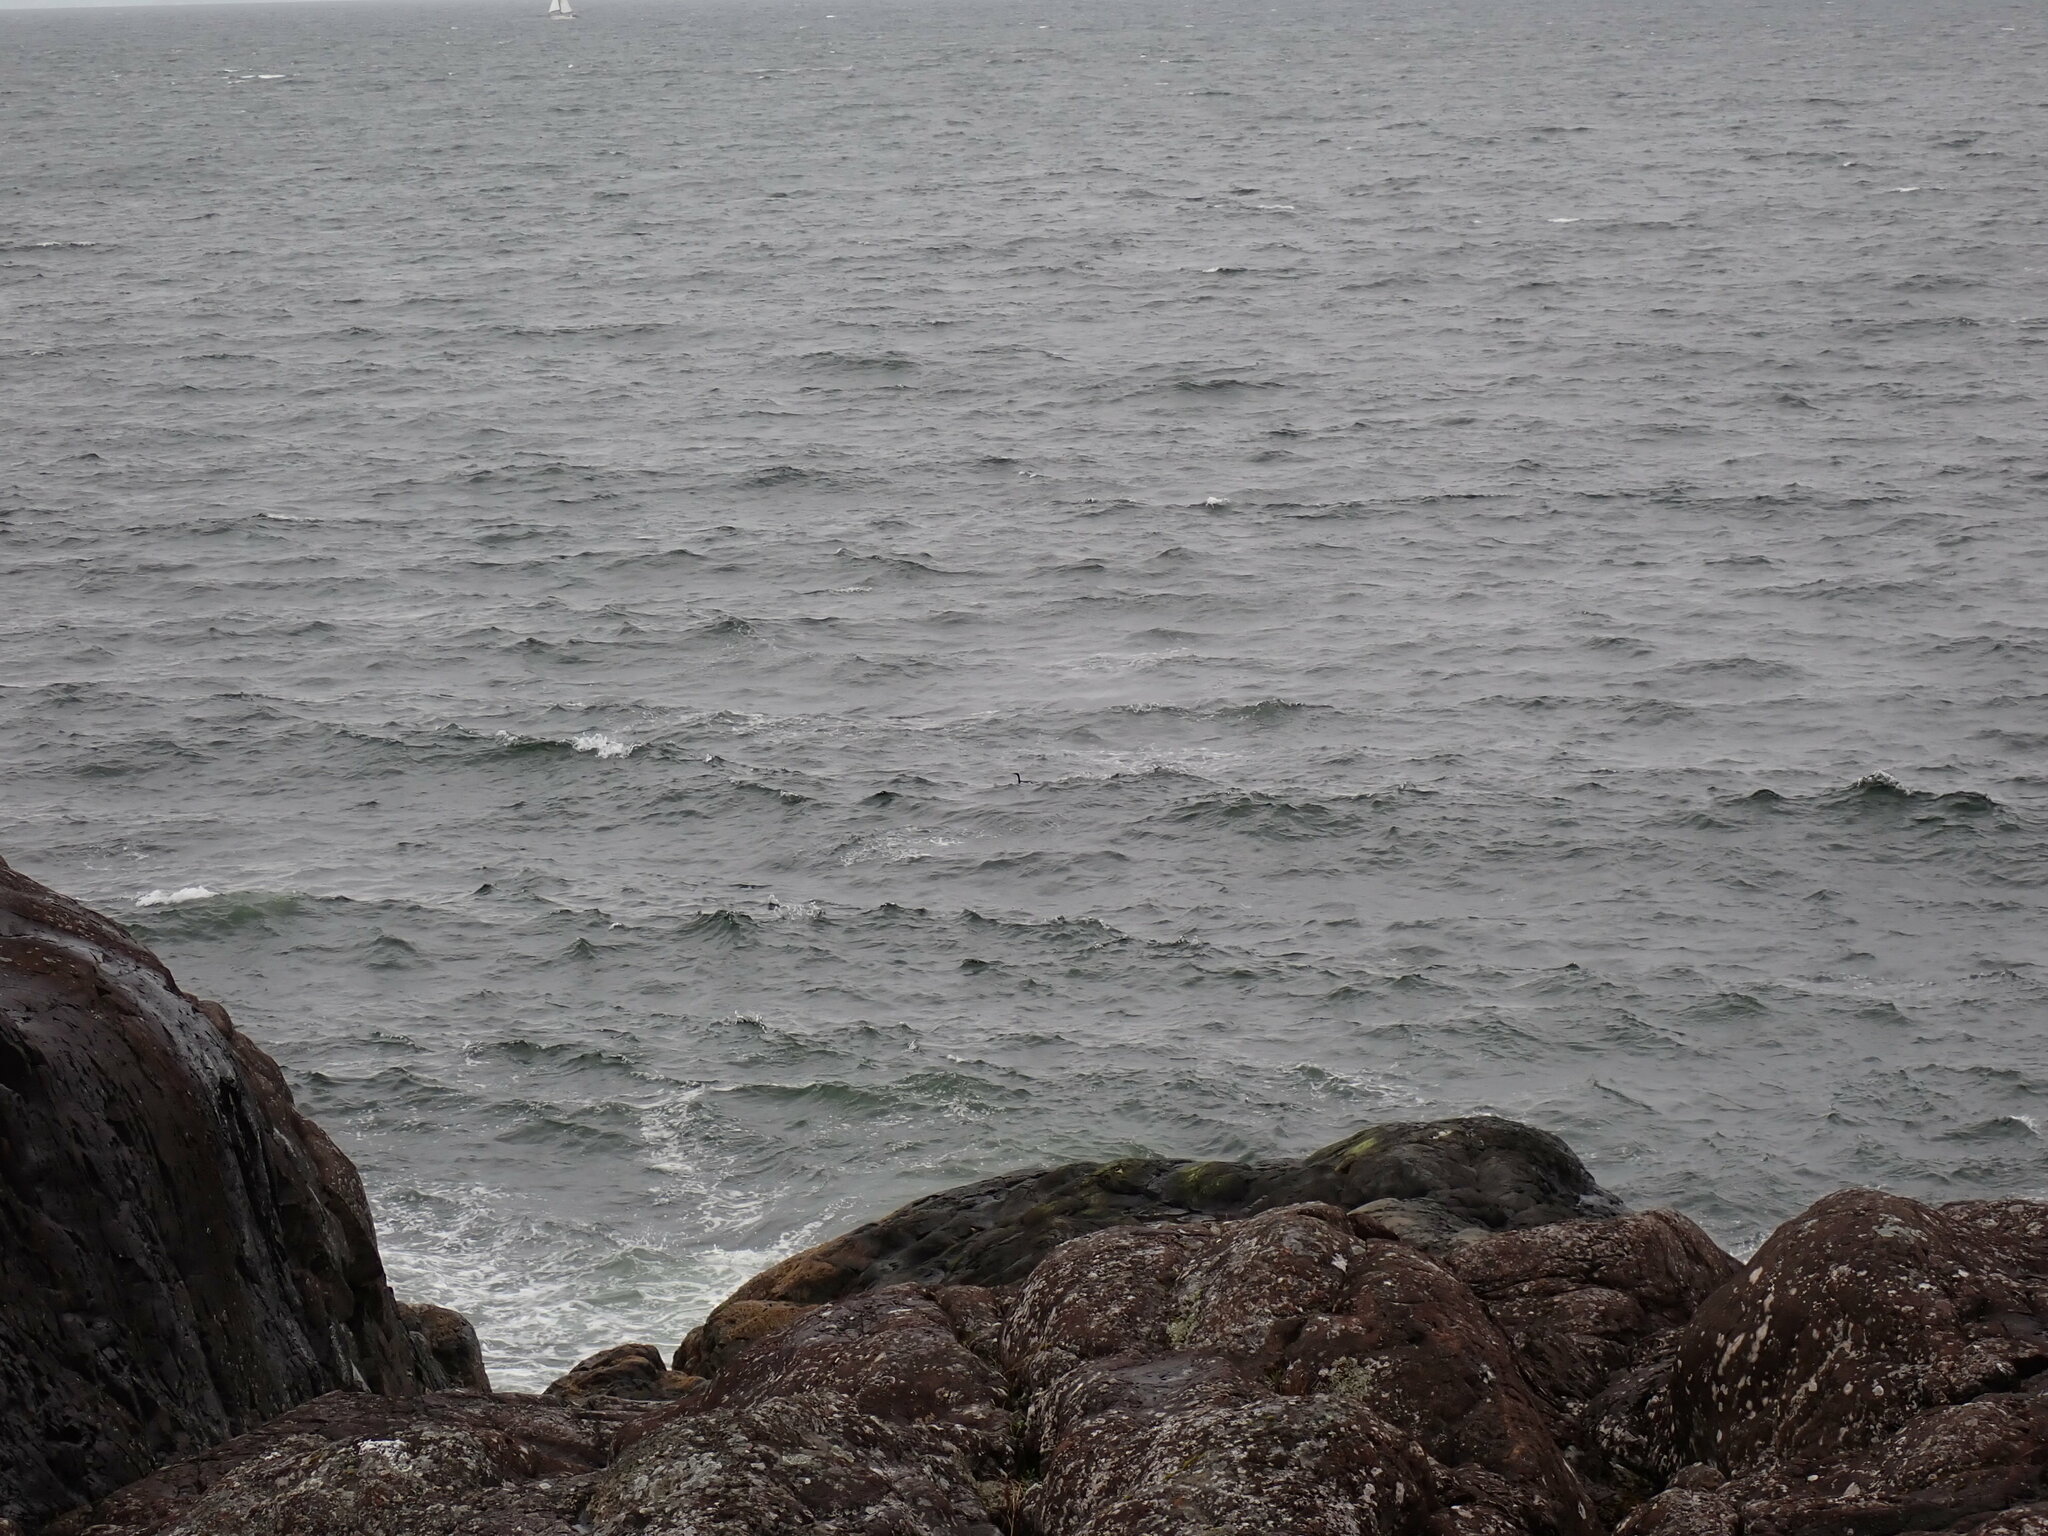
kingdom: Animalia
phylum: Chordata
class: Aves
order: Suliformes
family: Phalacrocoracidae
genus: Phalacrocorax
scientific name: Phalacrocorax pelagicus
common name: Pelagic cormorant
